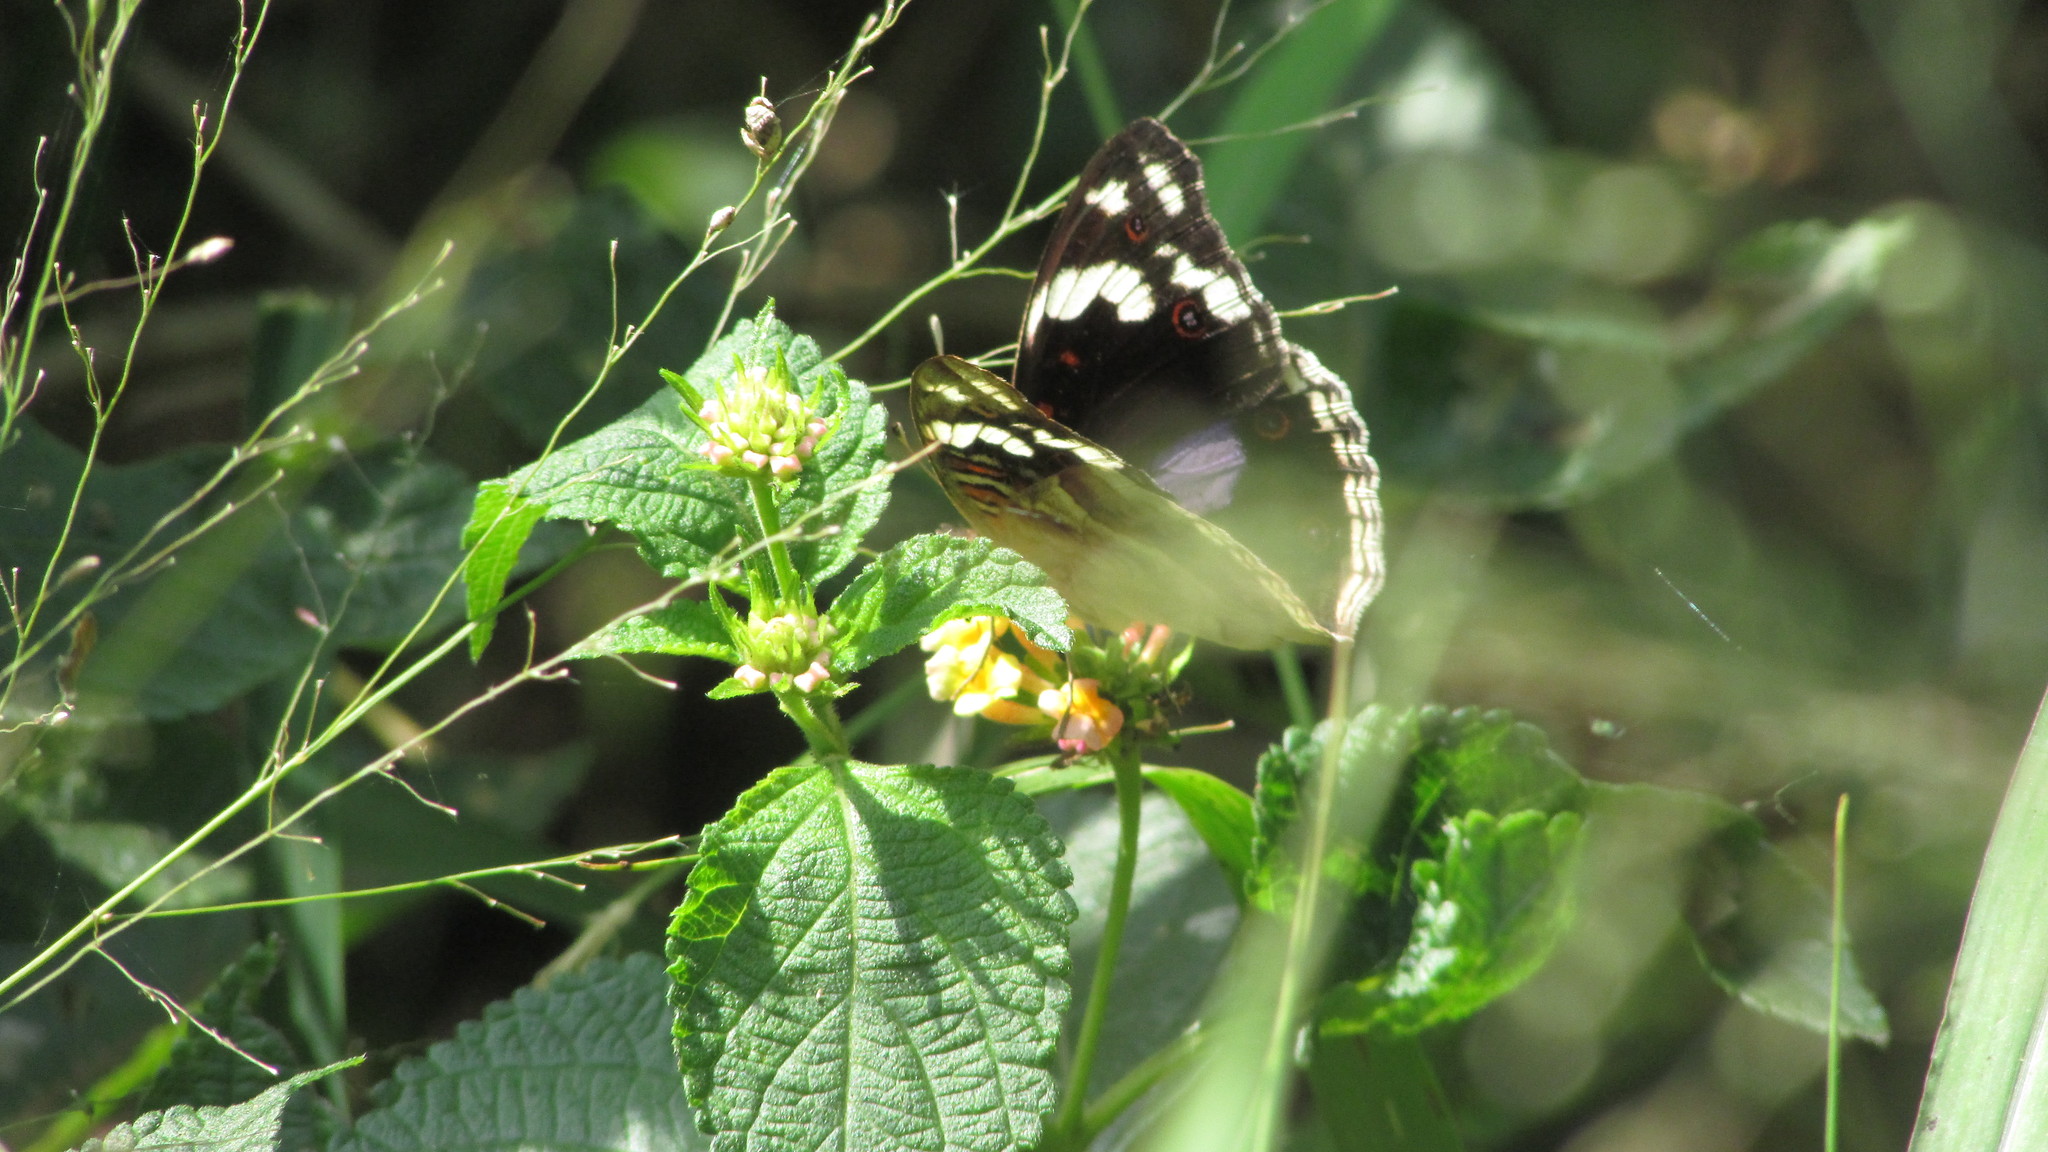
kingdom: Animalia
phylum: Arthropoda
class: Insecta
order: Lepidoptera
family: Nymphalidae
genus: Junonia
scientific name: Junonia oenone
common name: Dark blue pansy
